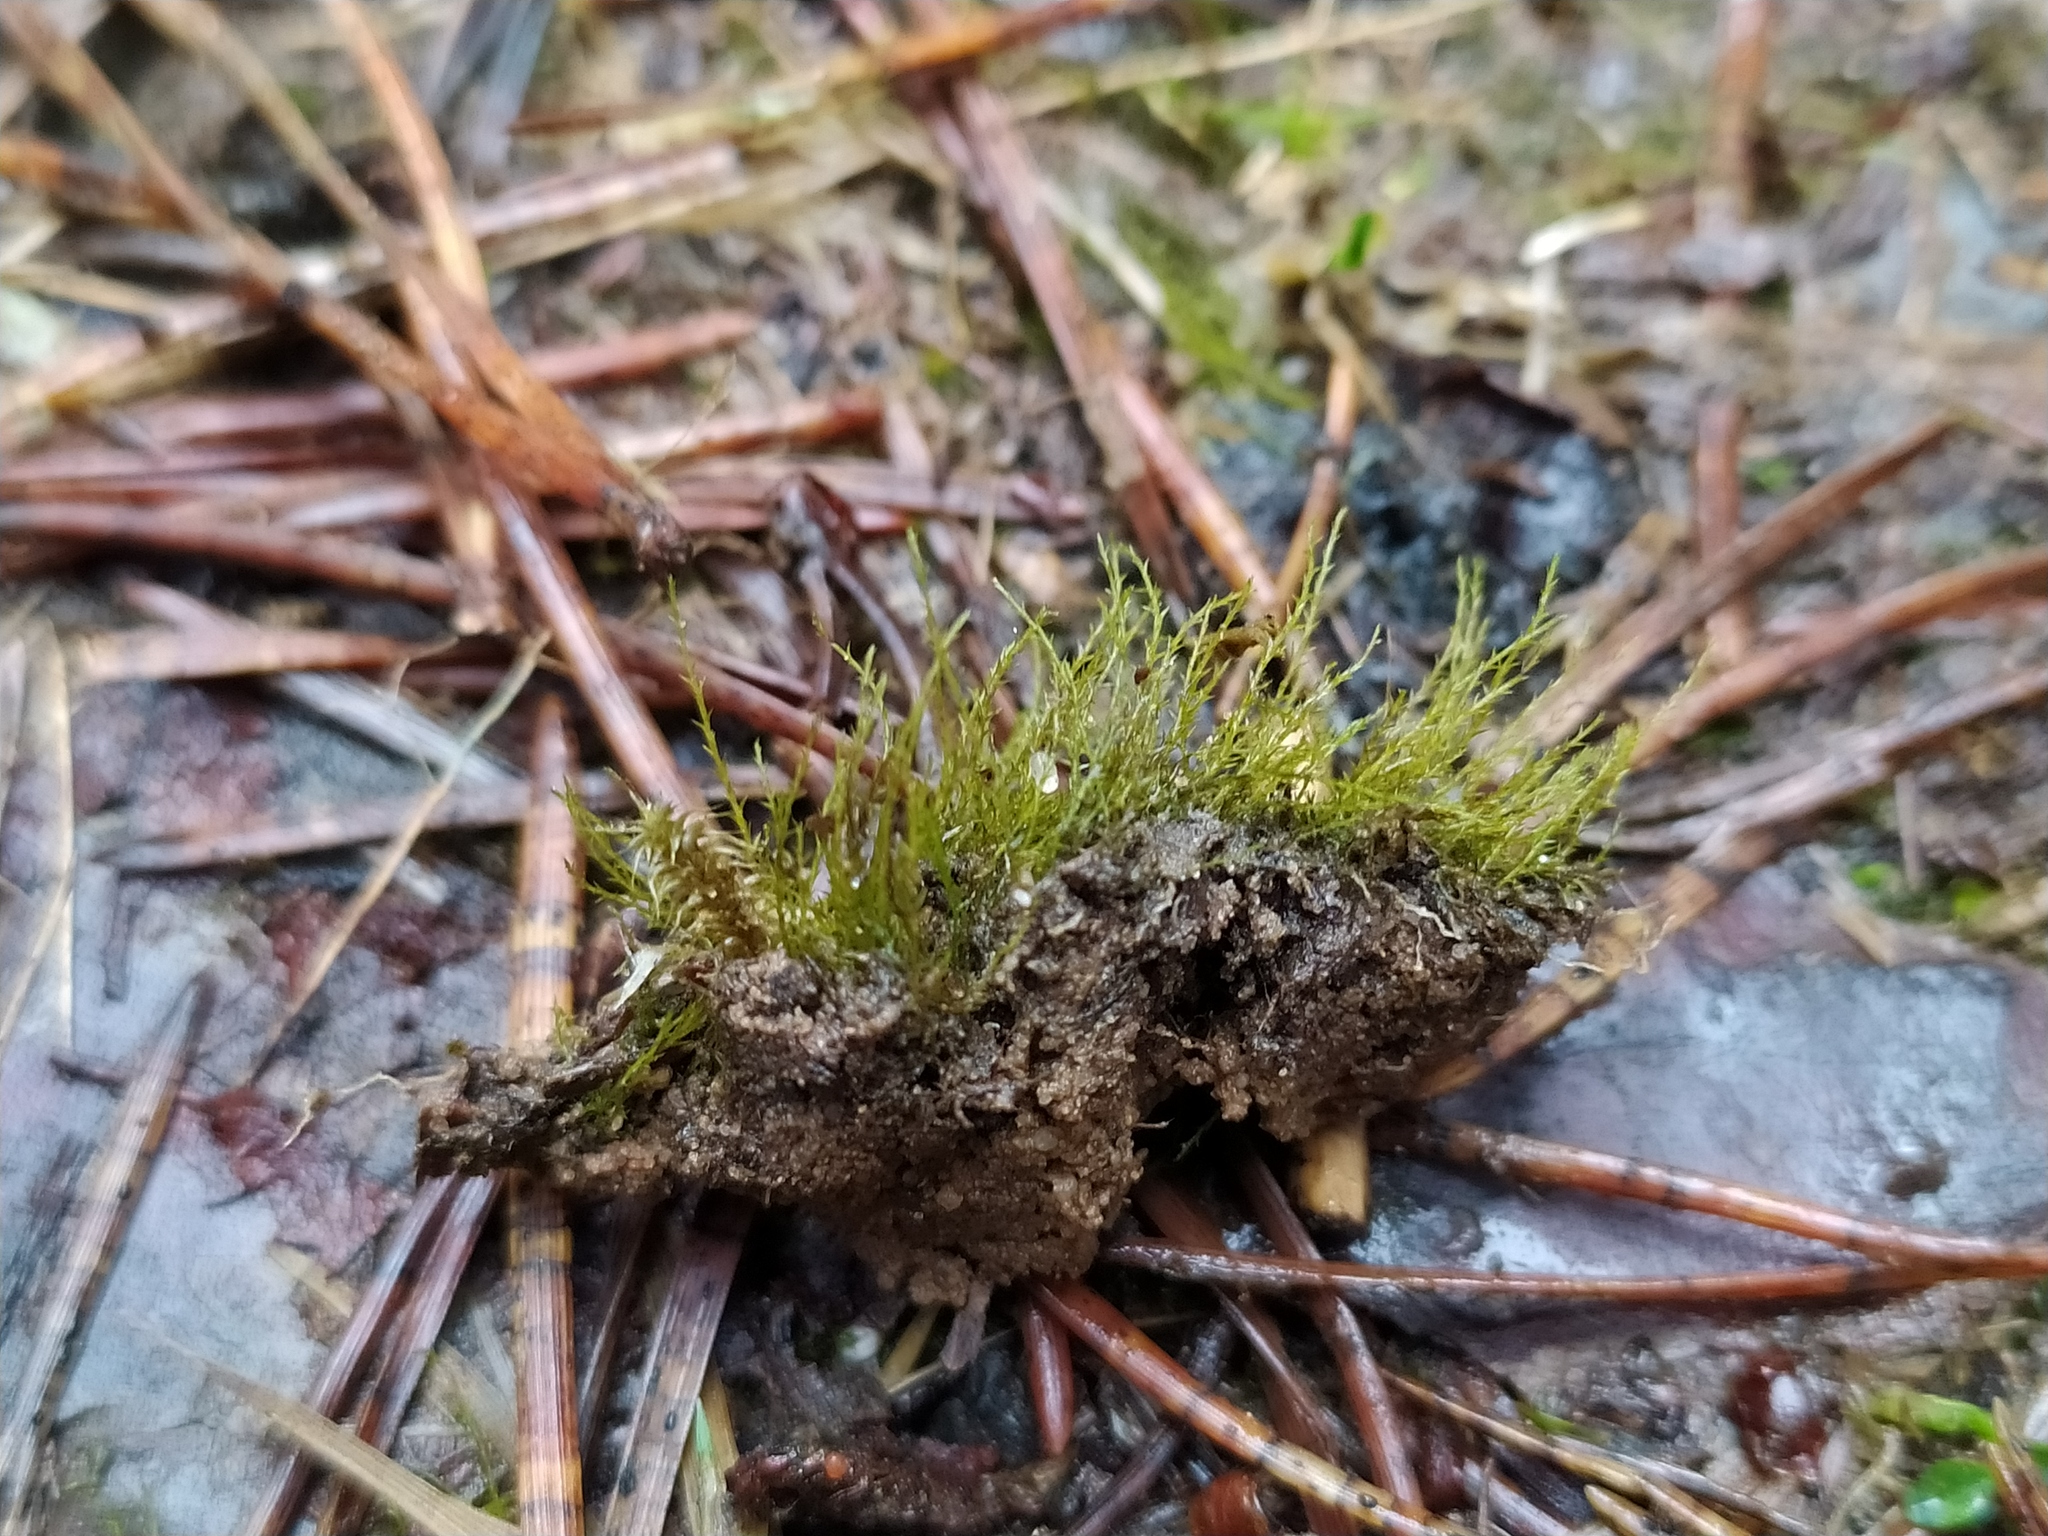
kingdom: Plantae
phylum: Bryophyta
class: Bryopsida
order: Archidiales
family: Archidiaceae
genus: Archidium
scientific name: Archidium alternifolium
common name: Clay earth-moss
